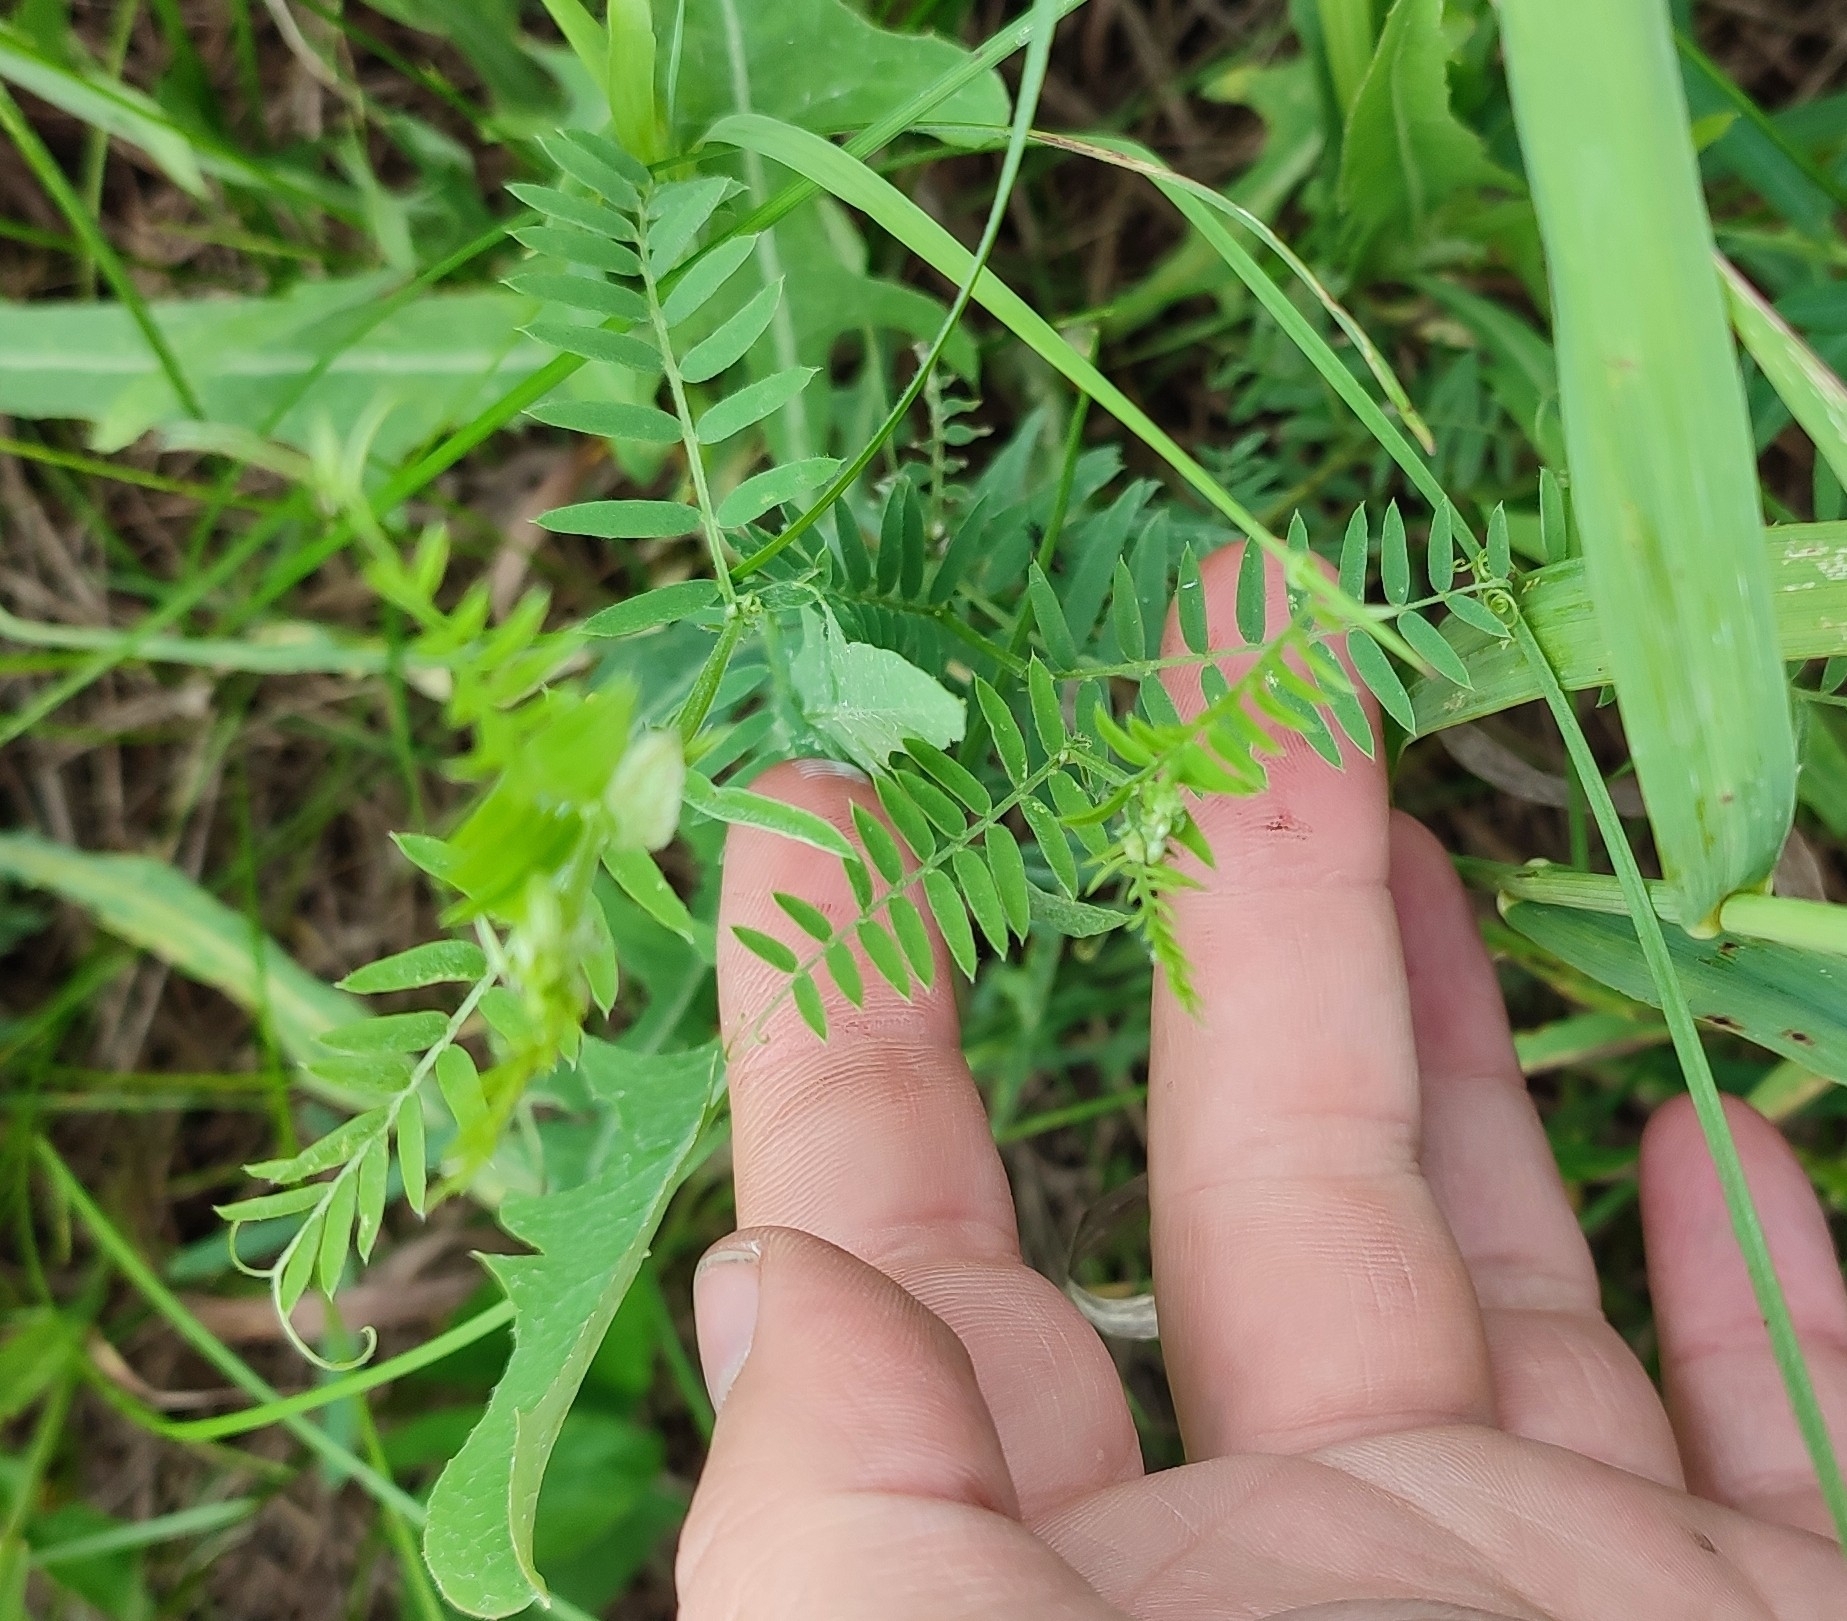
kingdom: Plantae
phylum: Tracheophyta
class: Magnoliopsida
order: Fabales
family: Fabaceae
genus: Vicia
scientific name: Vicia cracca
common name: Bird vetch
